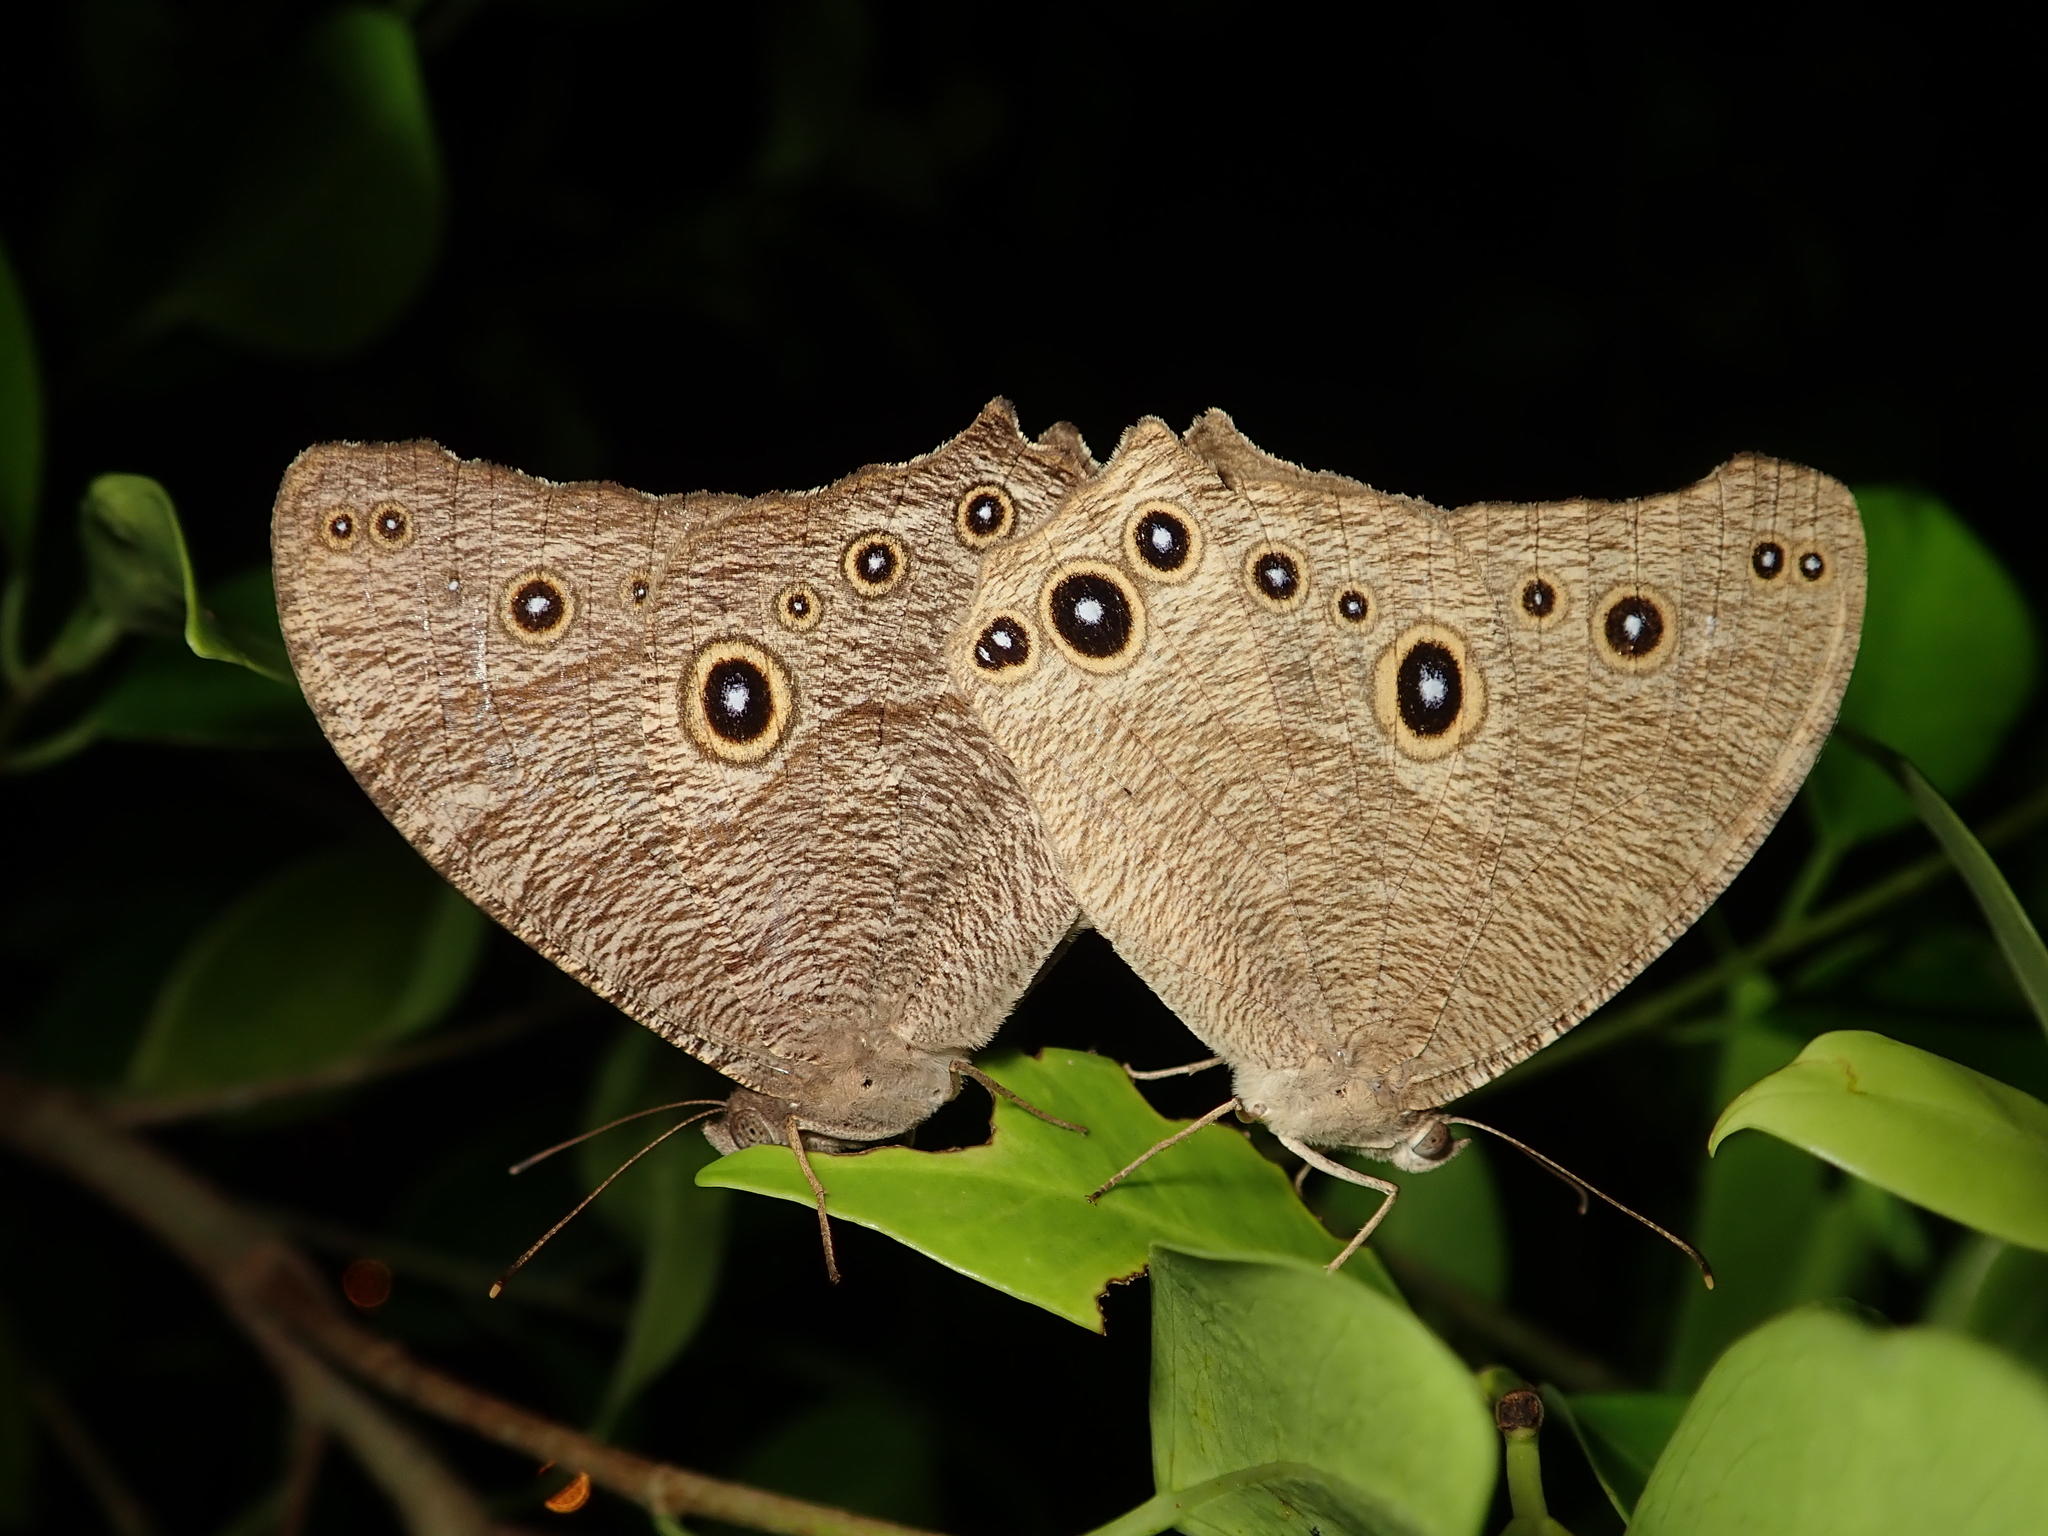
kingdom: Animalia
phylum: Arthropoda
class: Insecta
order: Lepidoptera
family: Nymphalidae
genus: Melanitis
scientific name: Melanitis leda
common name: Twilight brown
